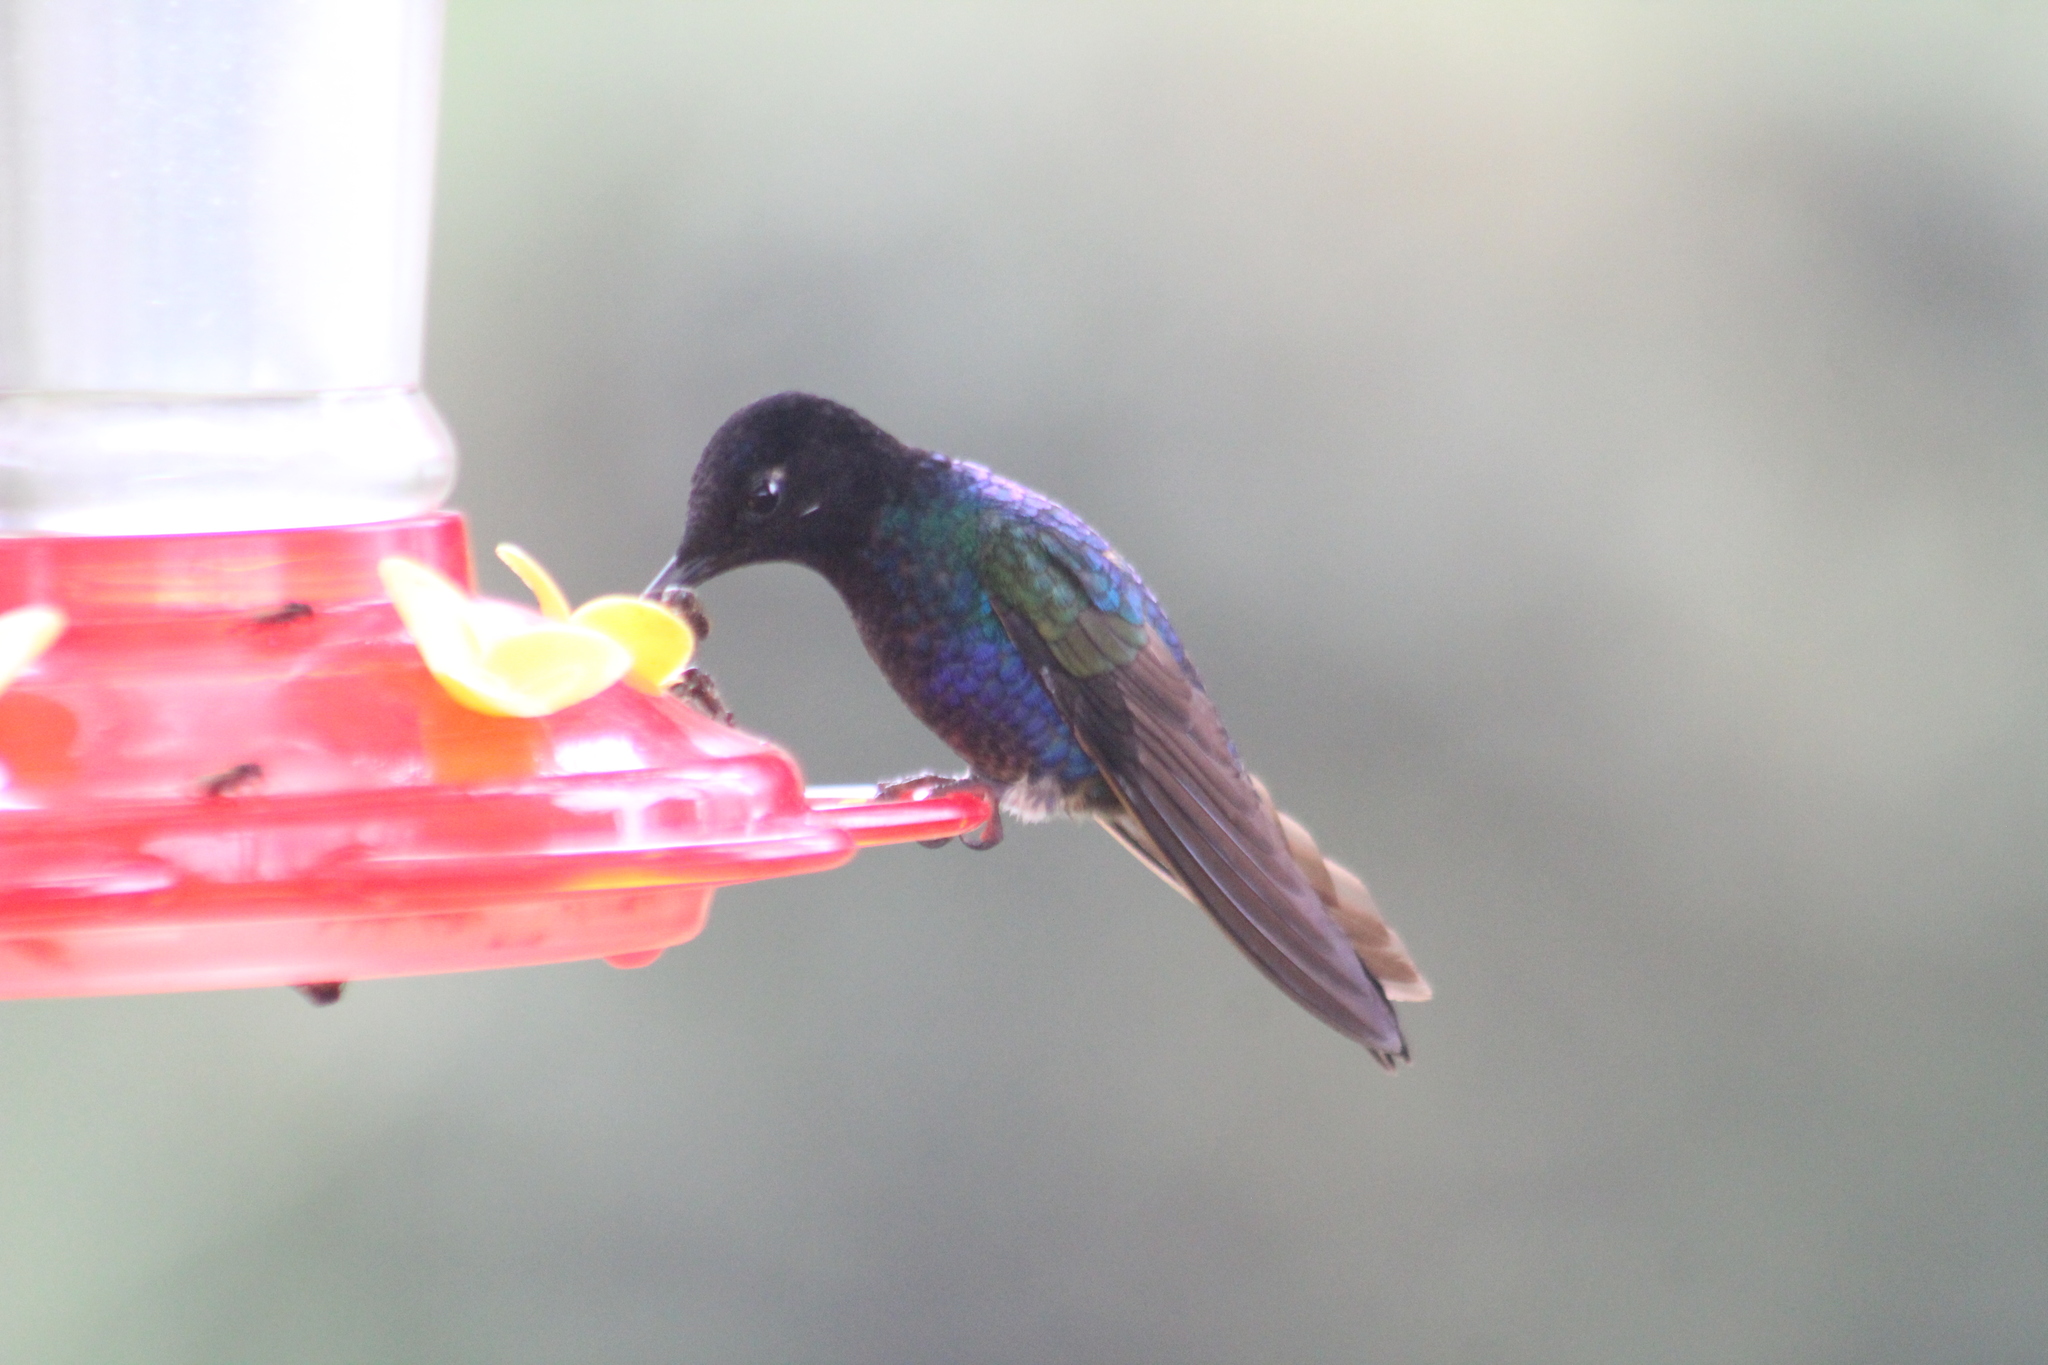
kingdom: Animalia
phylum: Chordata
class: Aves
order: Apodiformes
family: Trochilidae
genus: Boissonneaua
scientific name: Boissonneaua jardini
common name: Velvet-purple coronet
